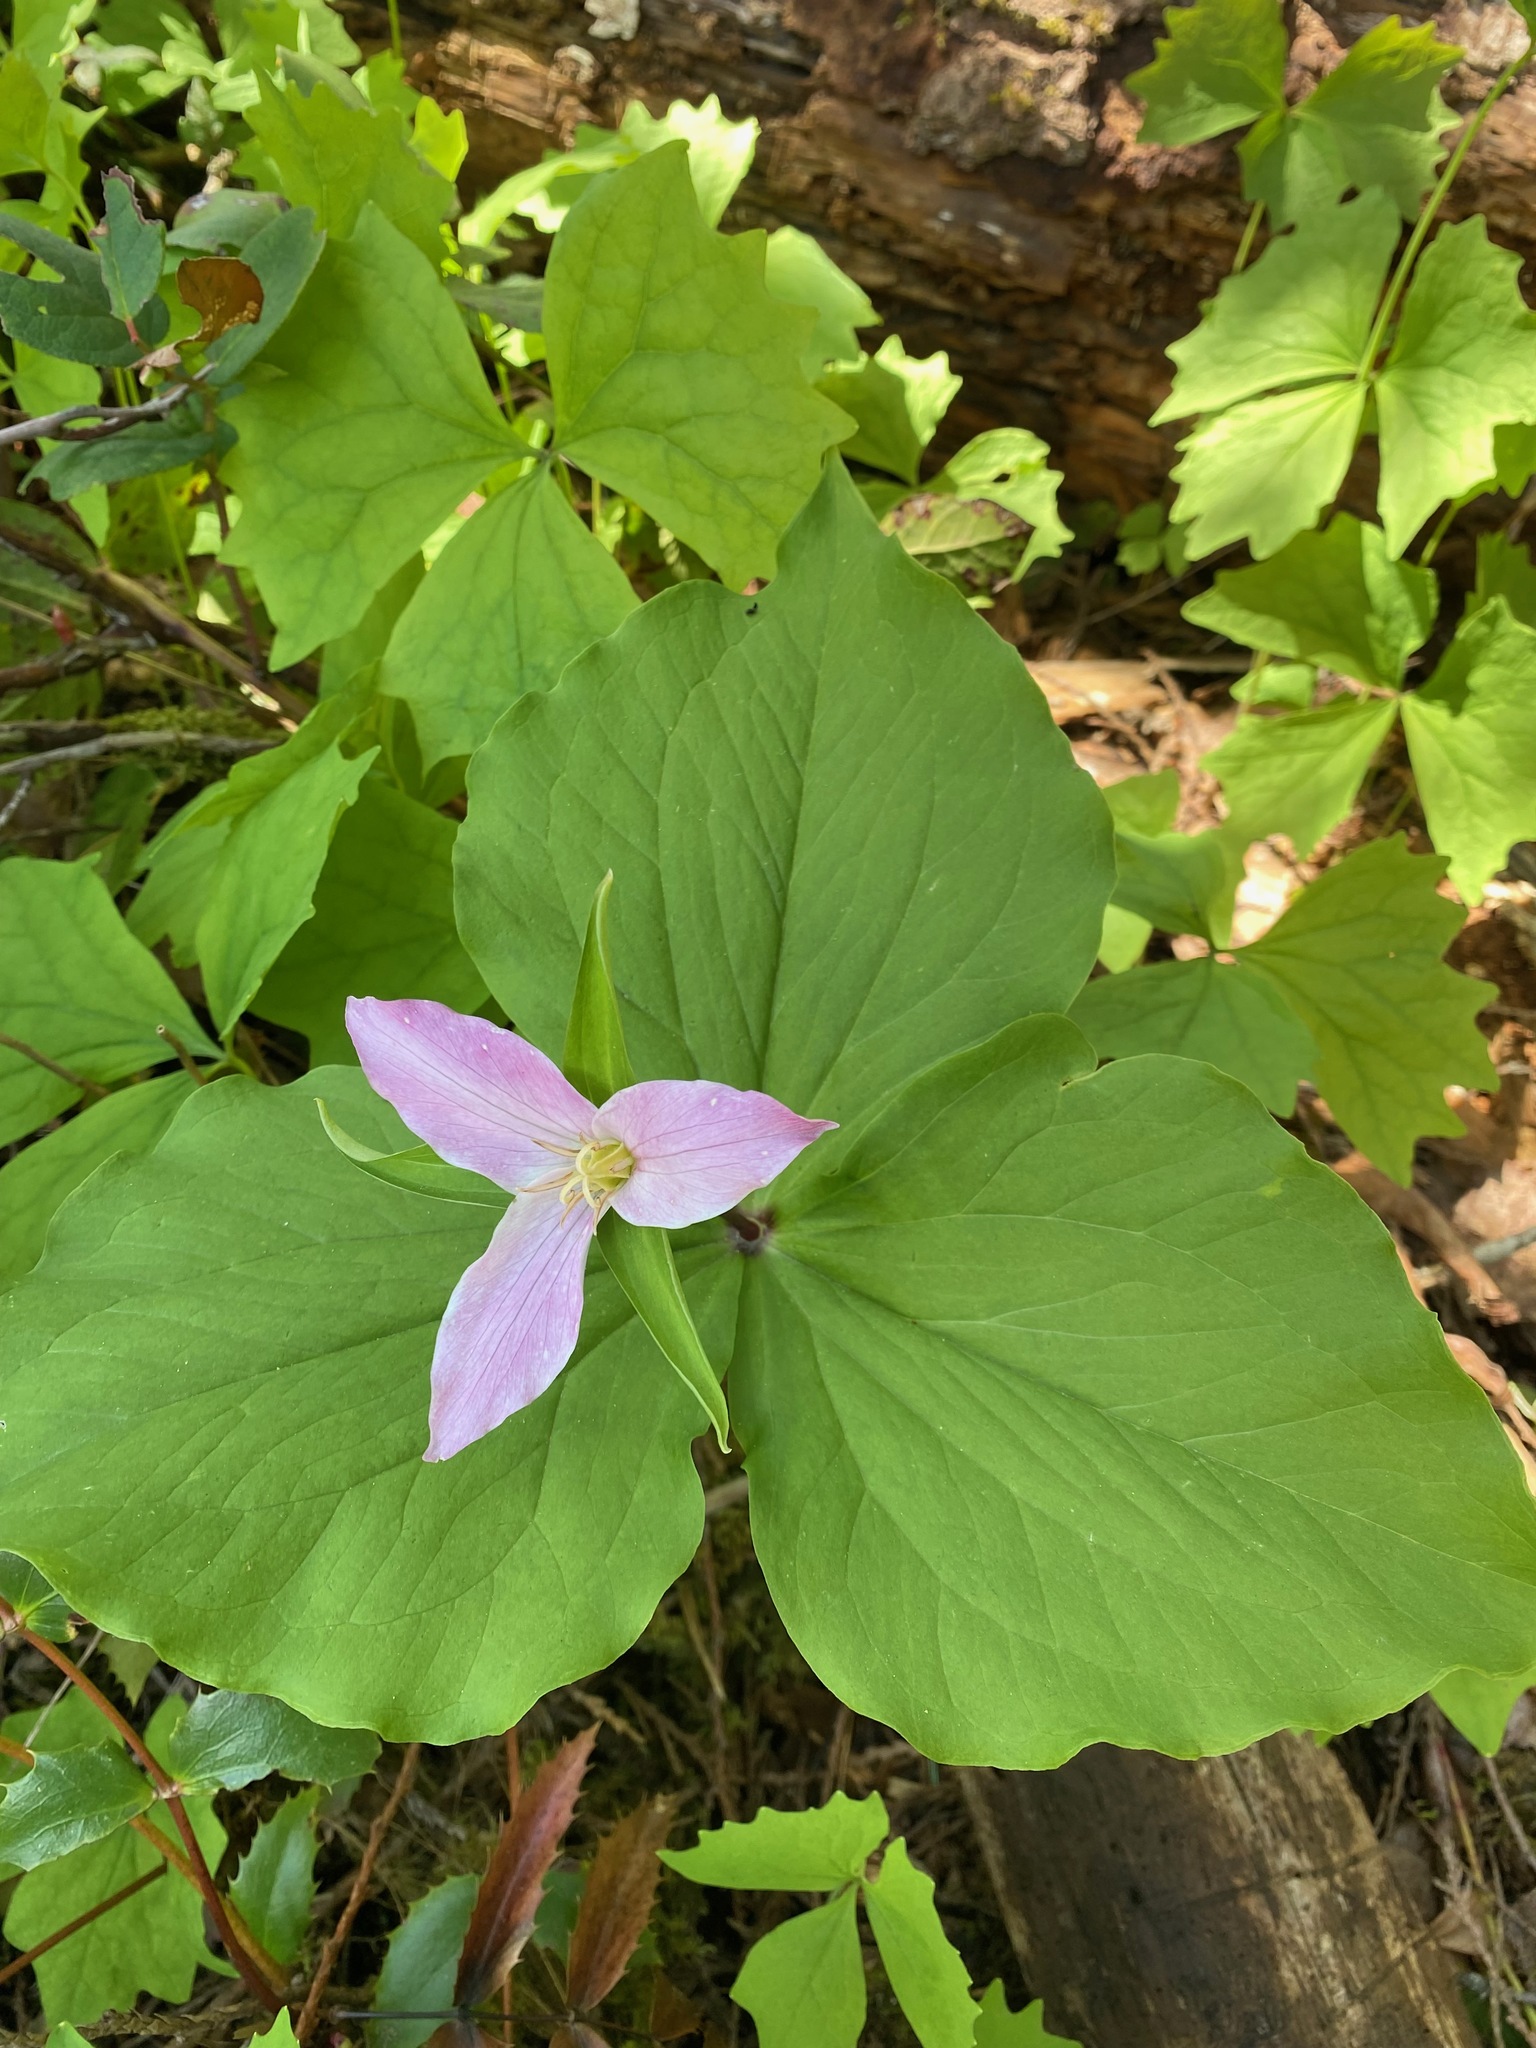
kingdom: Plantae
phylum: Tracheophyta
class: Liliopsida
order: Liliales
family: Melanthiaceae
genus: Trillium
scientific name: Trillium ovatum
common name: Pacific trillium
